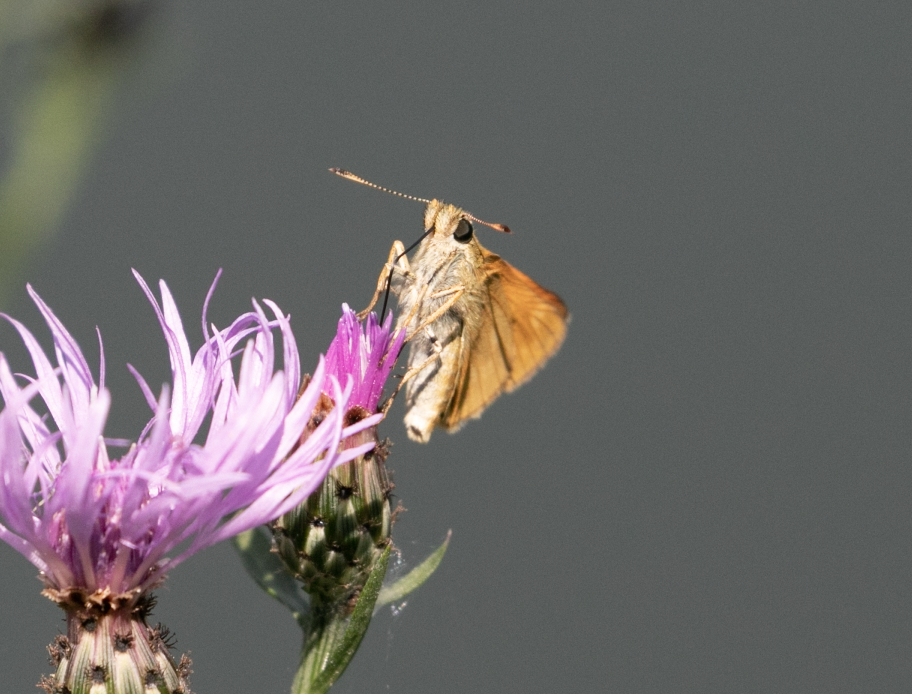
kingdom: Animalia
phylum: Arthropoda
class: Insecta
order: Lepidoptera
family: Hesperiidae
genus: Ochlodes
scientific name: Ochlodes venata
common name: Large skipper
